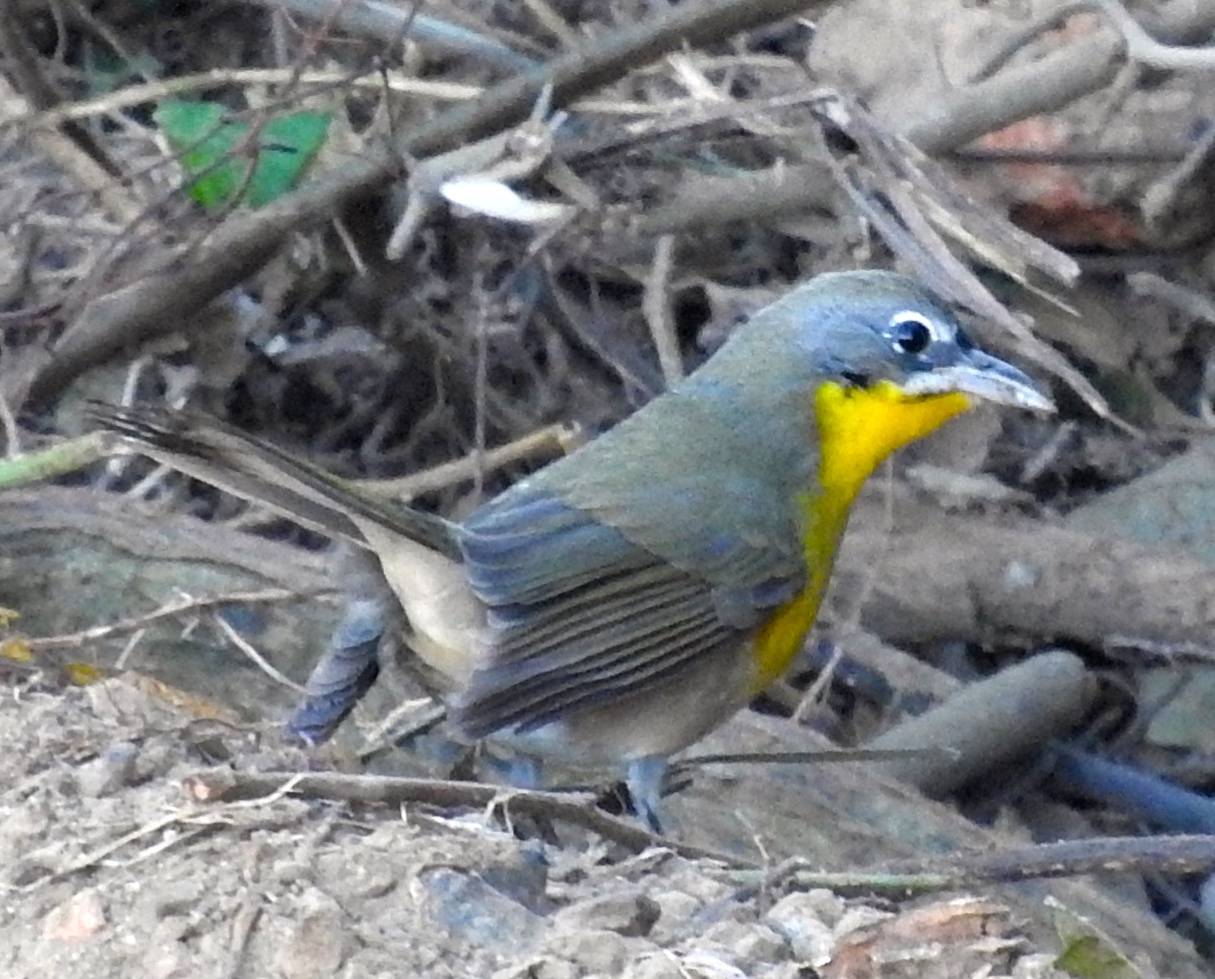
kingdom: Animalia
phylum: Chordata
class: Aves
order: Passeriformes
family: Parulidae
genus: Icteria
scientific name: Icteria virens
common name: Yellow-breasted chat
